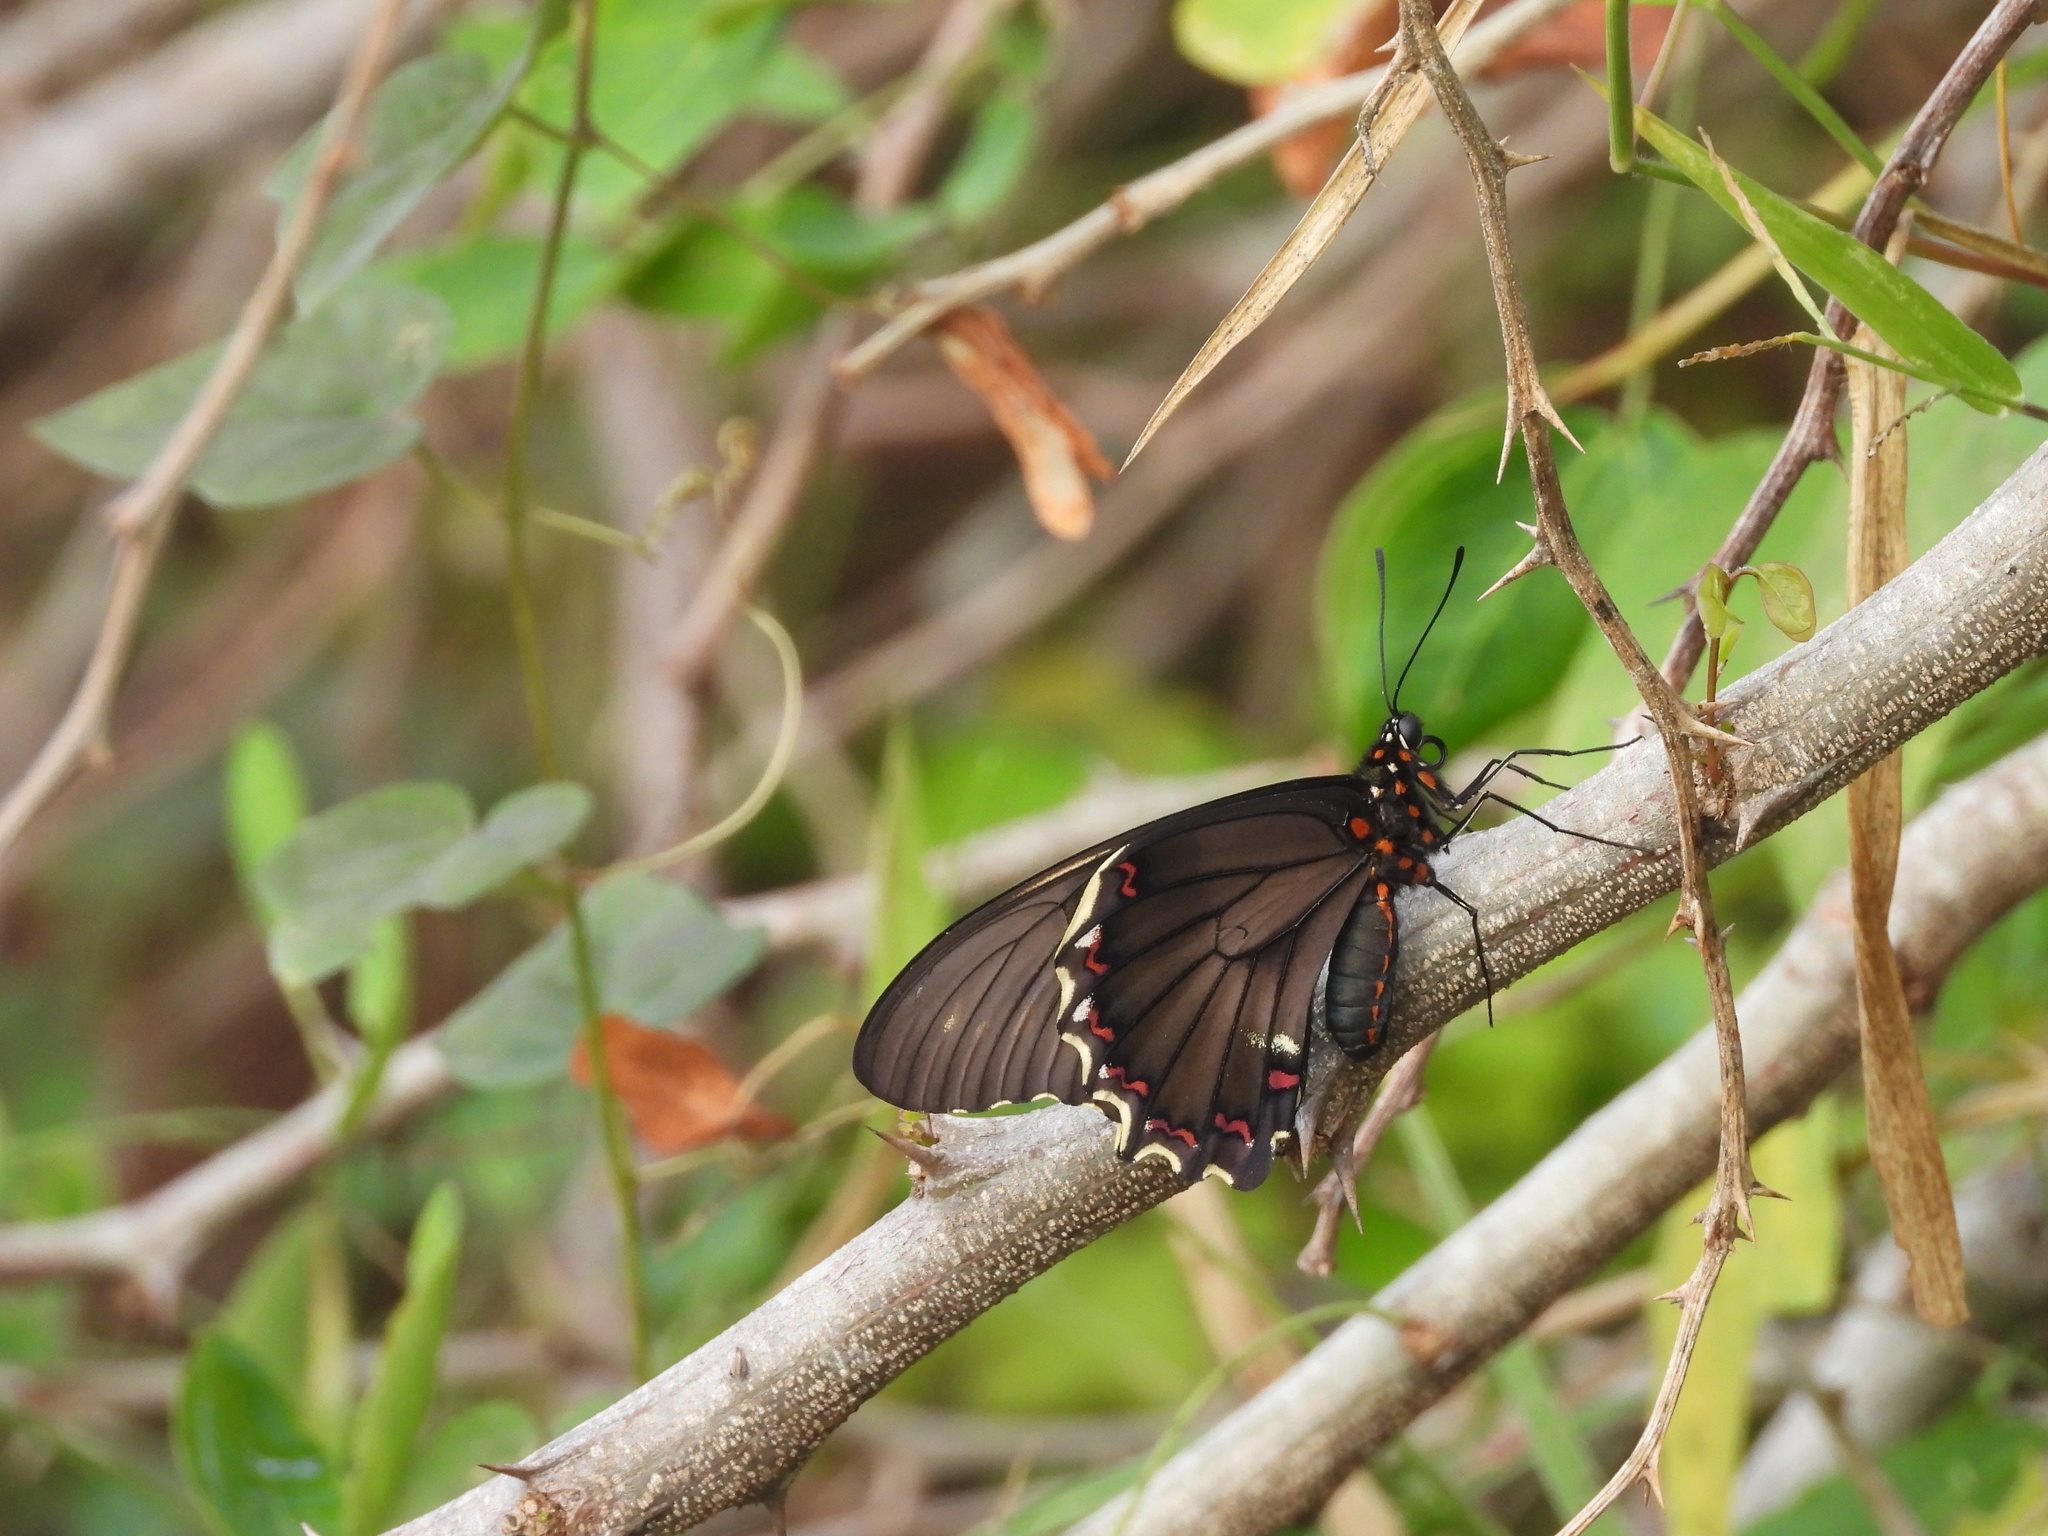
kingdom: Animalia
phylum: Arthropoda
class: Insecta
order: Lepidoptera
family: Papilionidae
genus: Battus
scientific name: Battus polydamas
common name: Polydamas swallowtail
